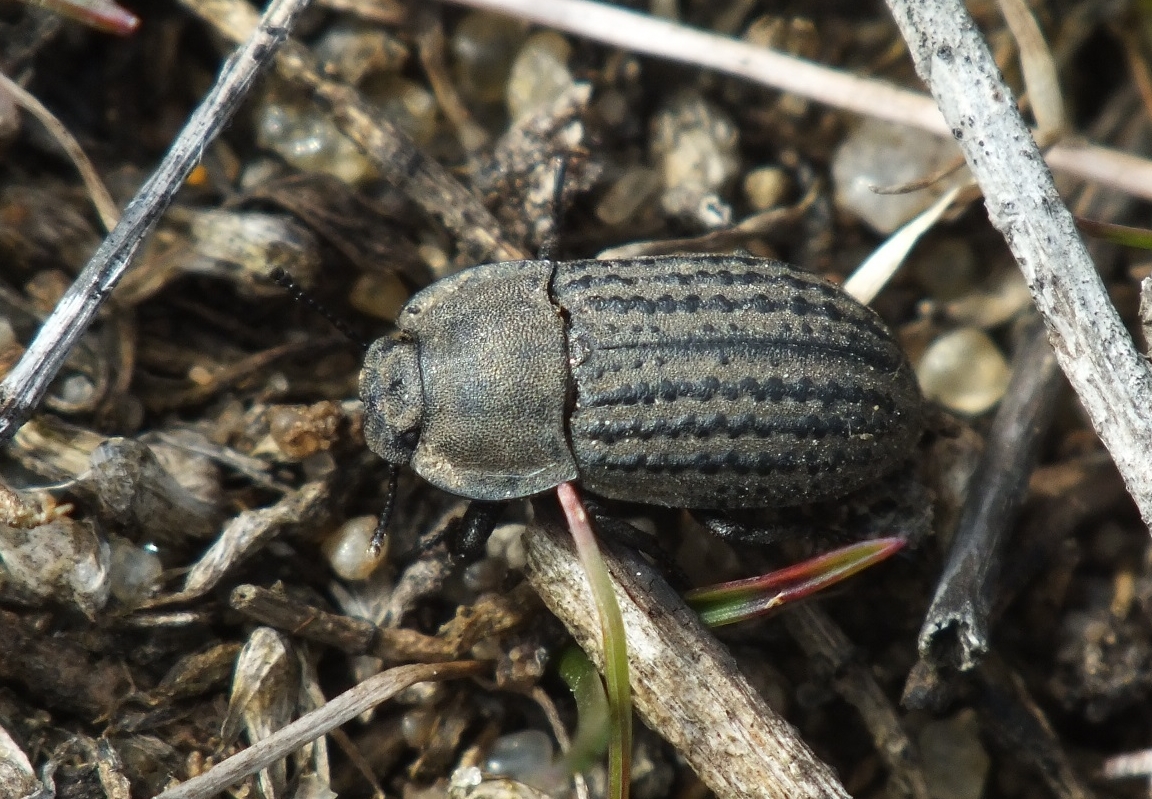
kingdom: Animalia
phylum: Arthropoda
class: Insecta
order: Coleoptera
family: Tenebrionidae
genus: Opatrum
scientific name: Opatrum sabulosum
